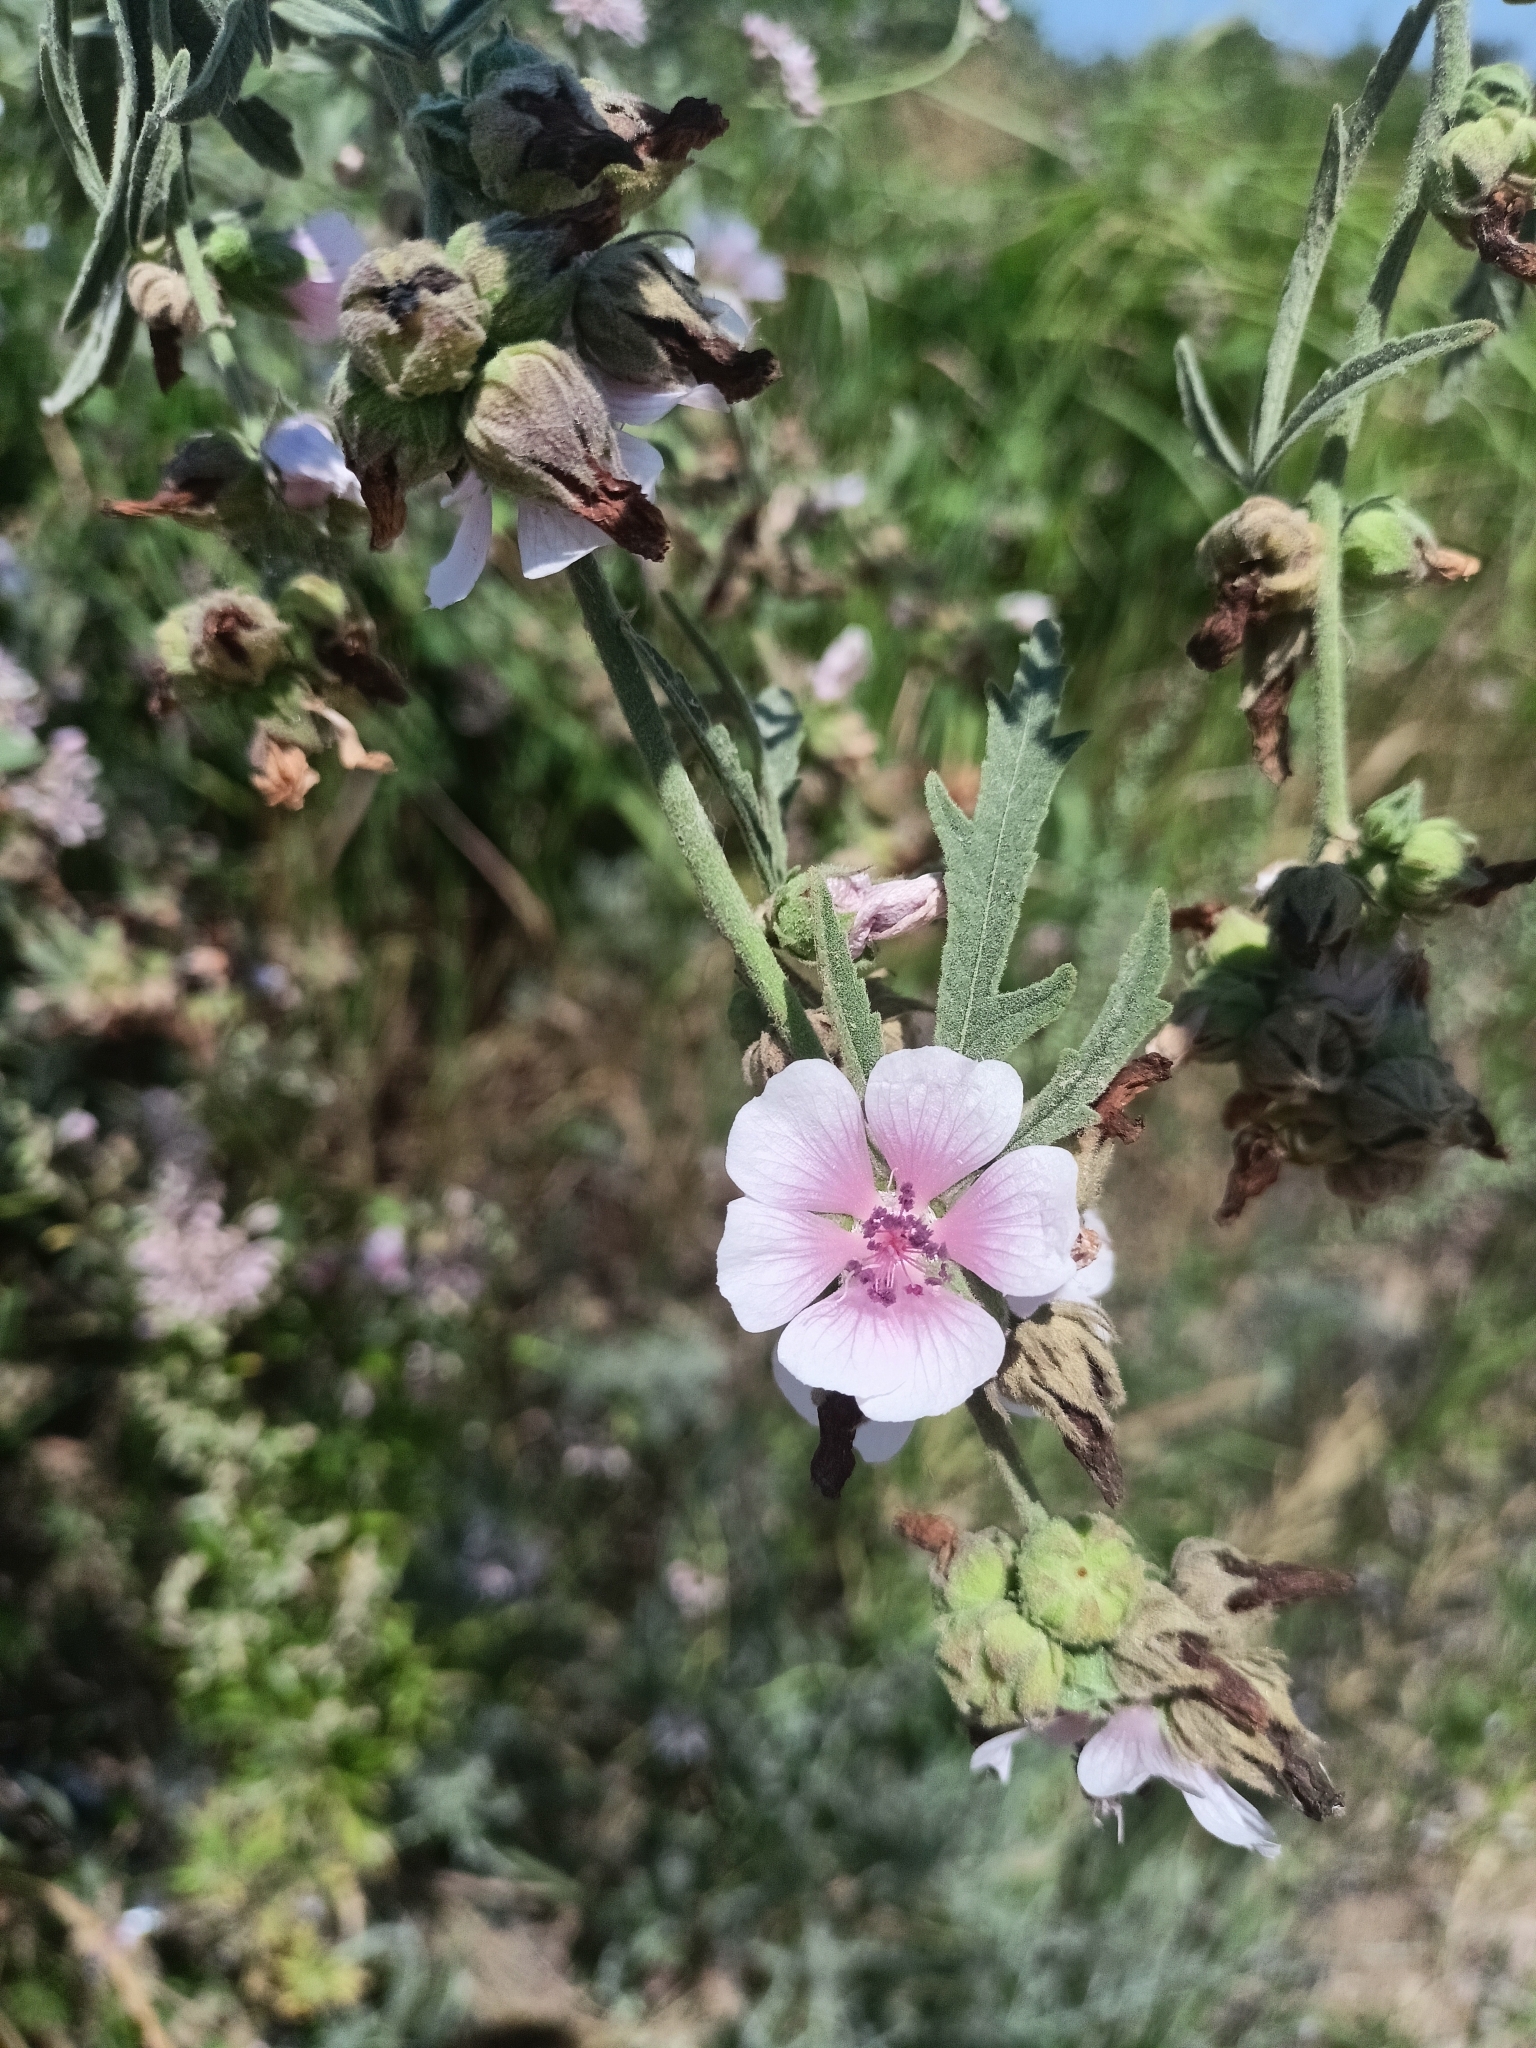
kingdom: Plantae
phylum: Tracheophyta
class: Magnoliopsida
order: Malvales
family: Malvaceae
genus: Althaea
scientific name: Althaea cannabina
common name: Palm-leaf marshmallow
